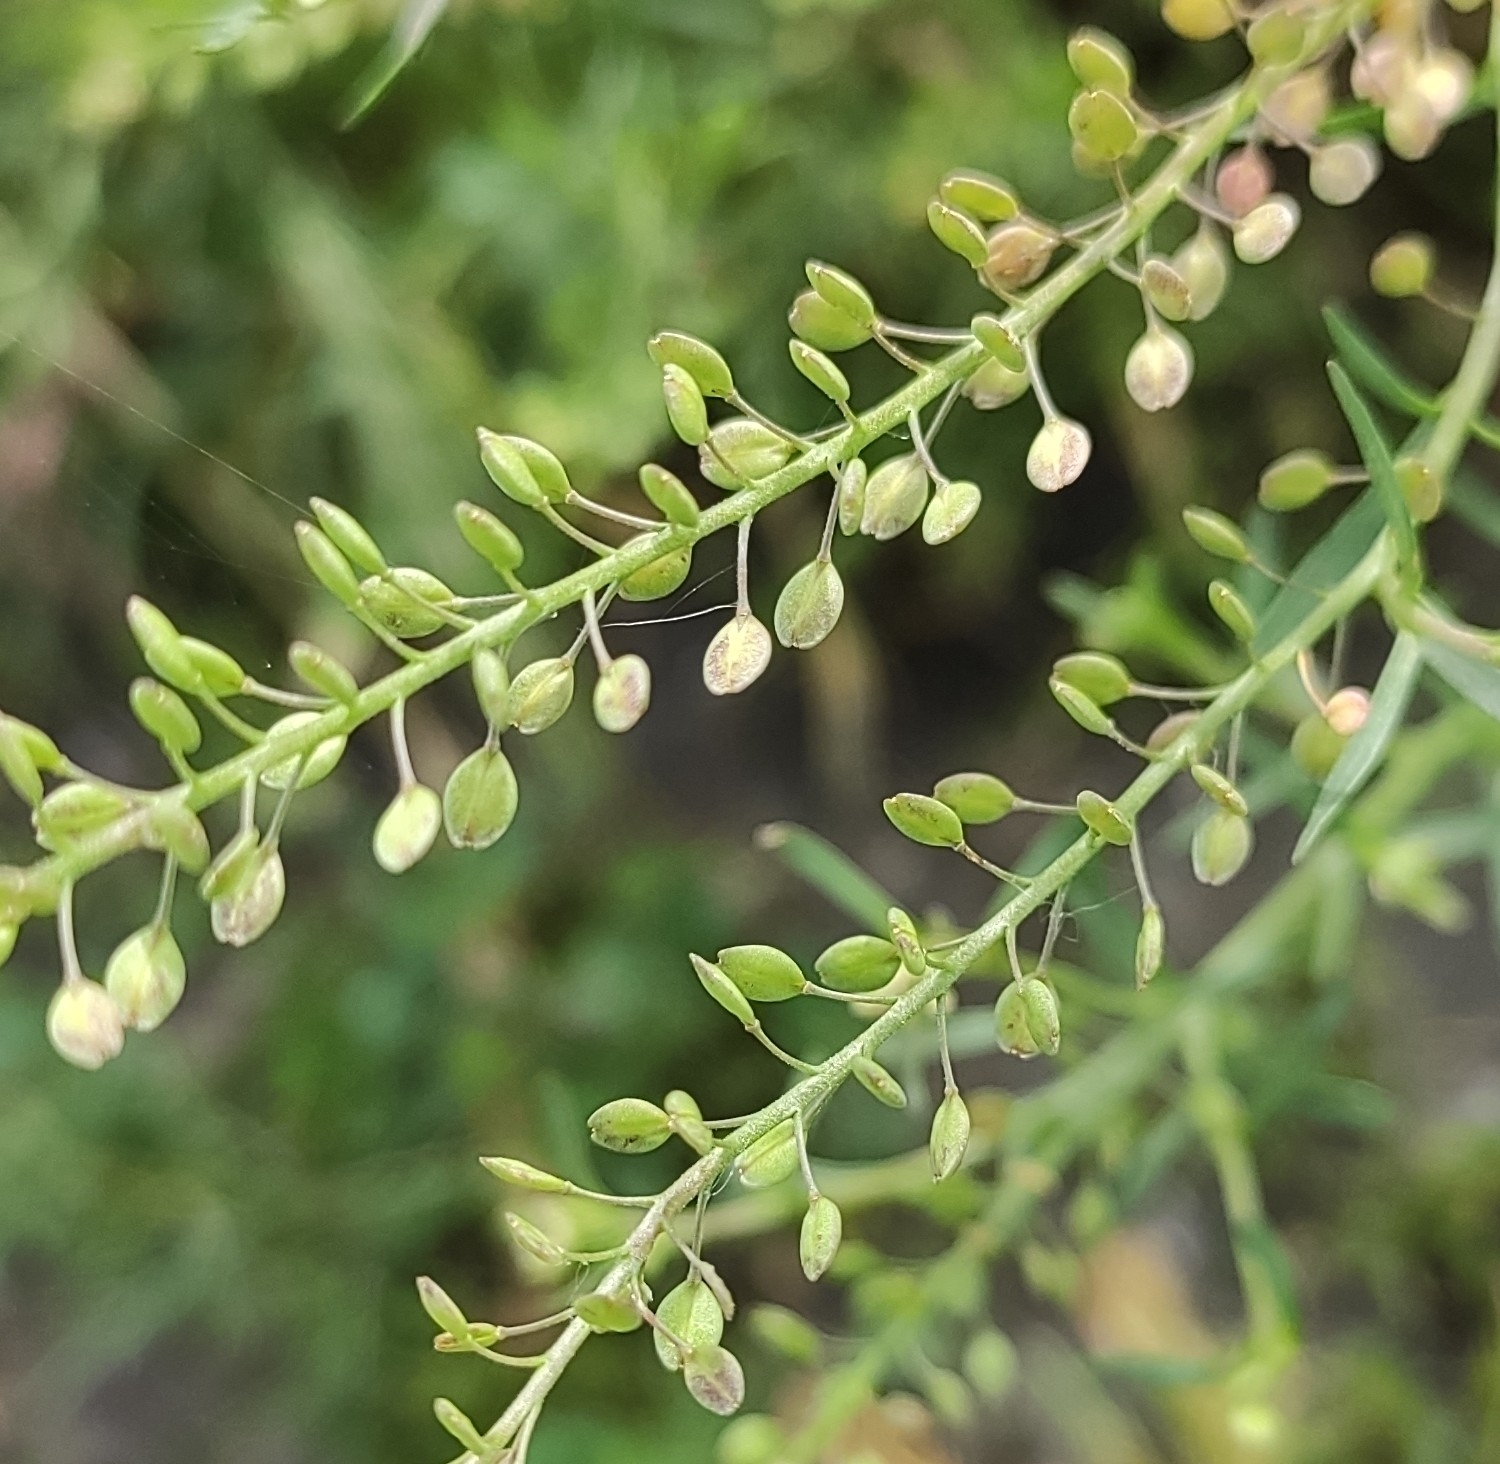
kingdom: Plantae
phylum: Tracheophyta
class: Magnoliopsida
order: Brassicales
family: Brassicaceae
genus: Lepidium
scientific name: Lepidium ruderale
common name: Narrow-leaved pepperwort
